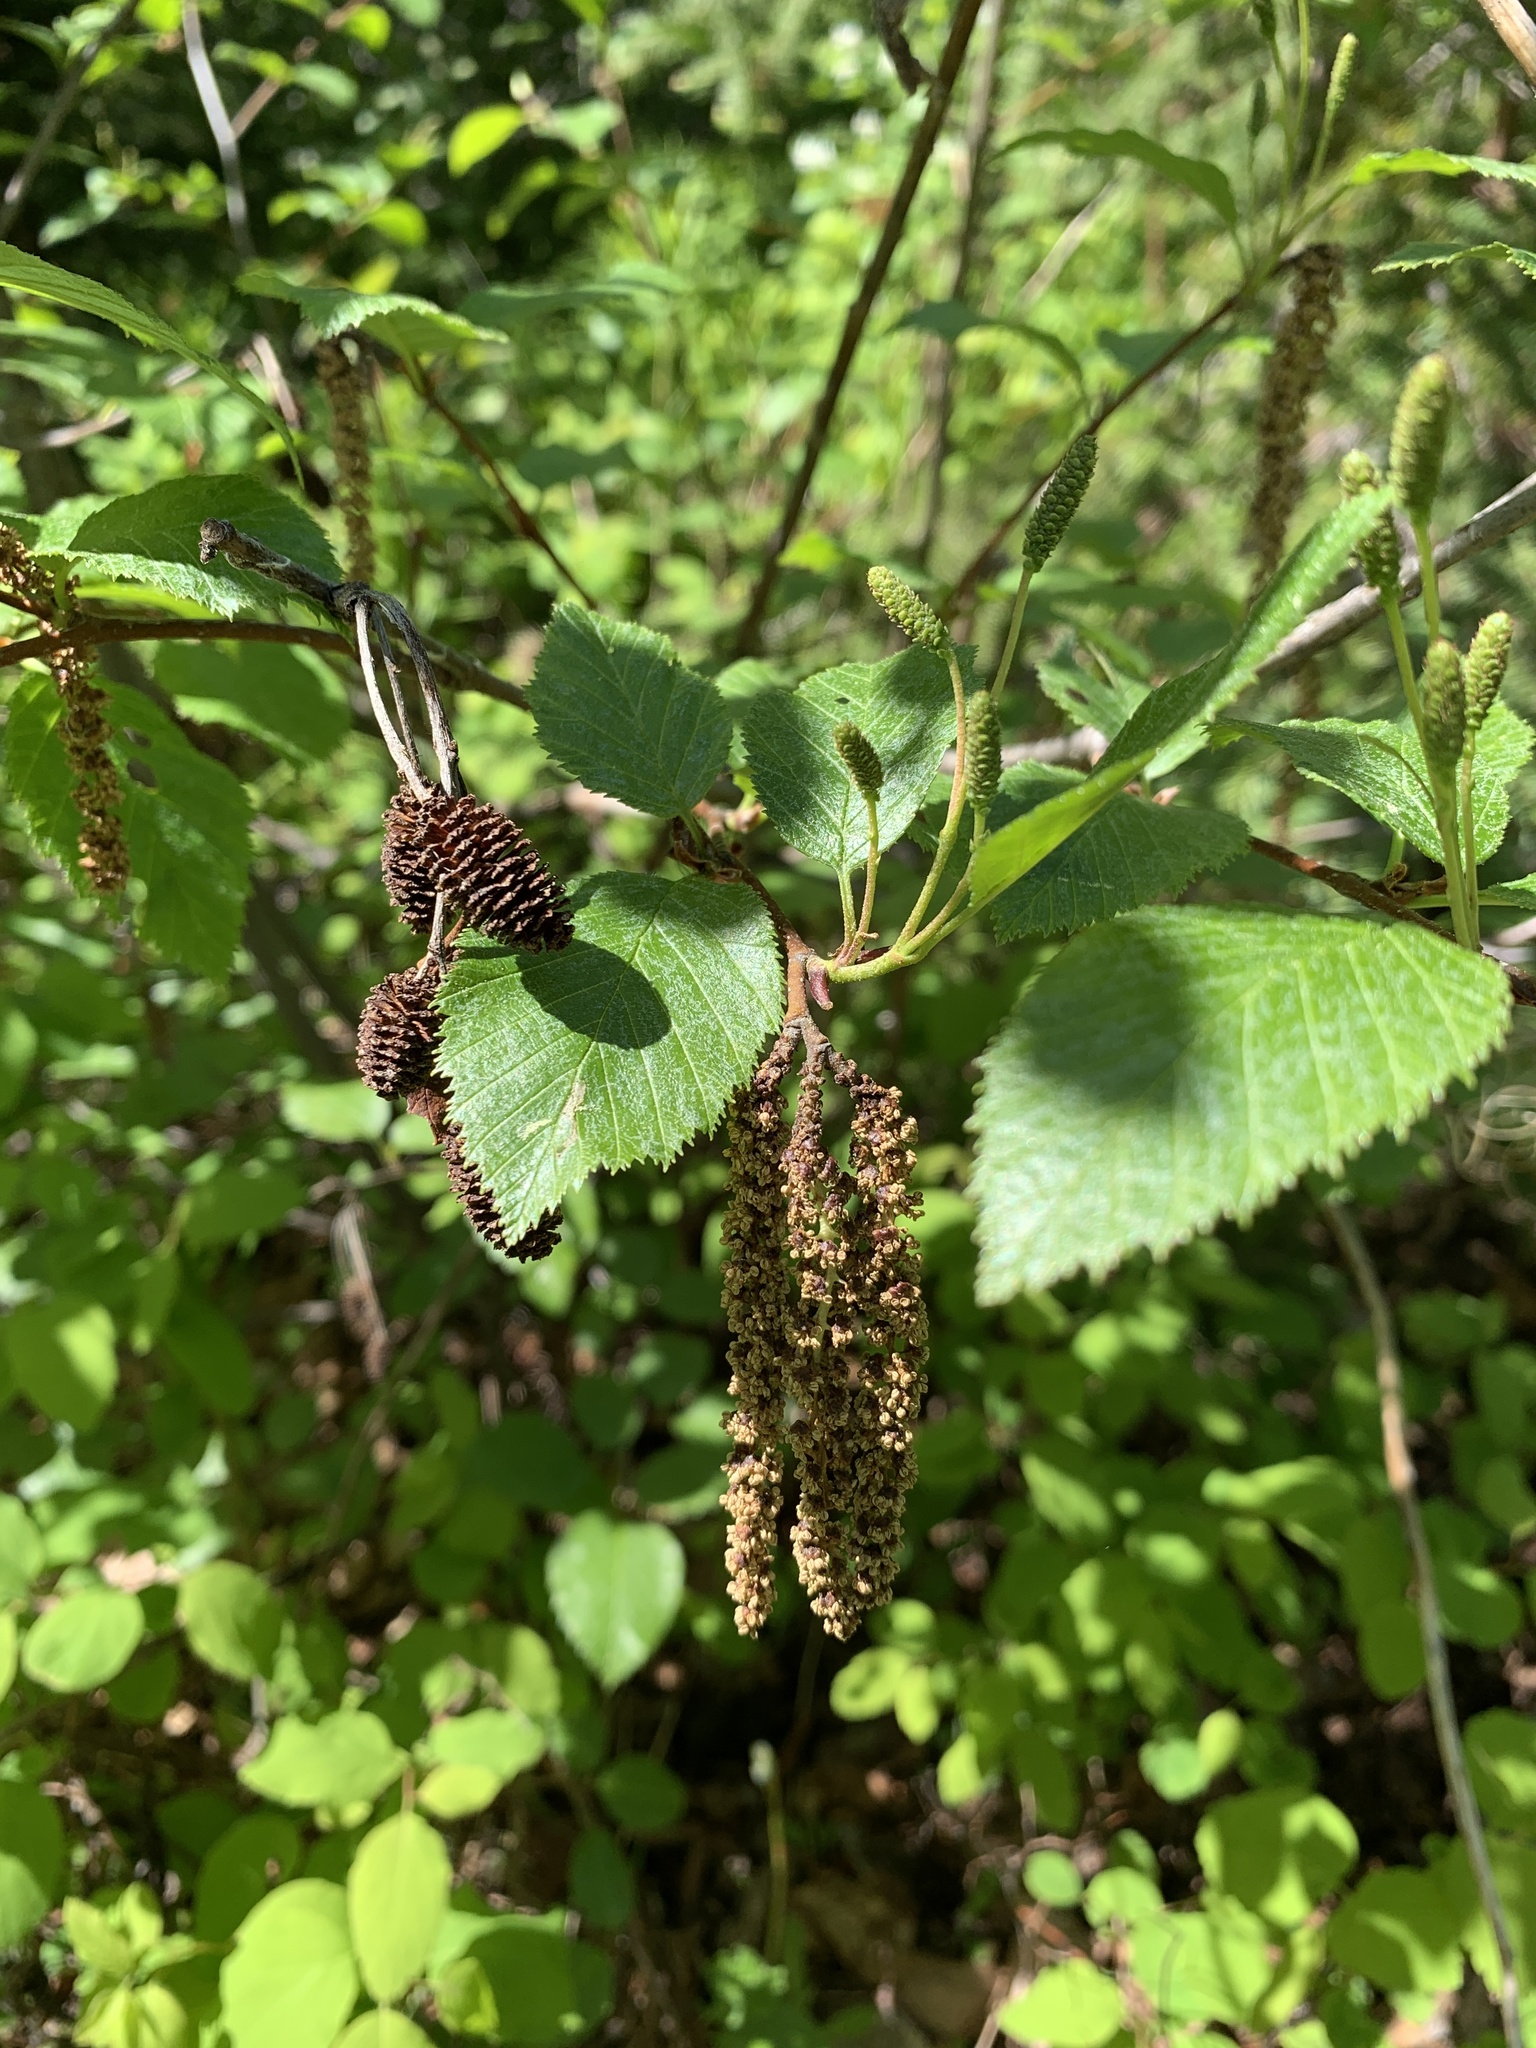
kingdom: Plantae
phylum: Tracheophyta
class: Magnoliopsida
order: Fagales
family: Betulaceae
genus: Alnus
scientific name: Alnus alnobetula
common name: Green alder
